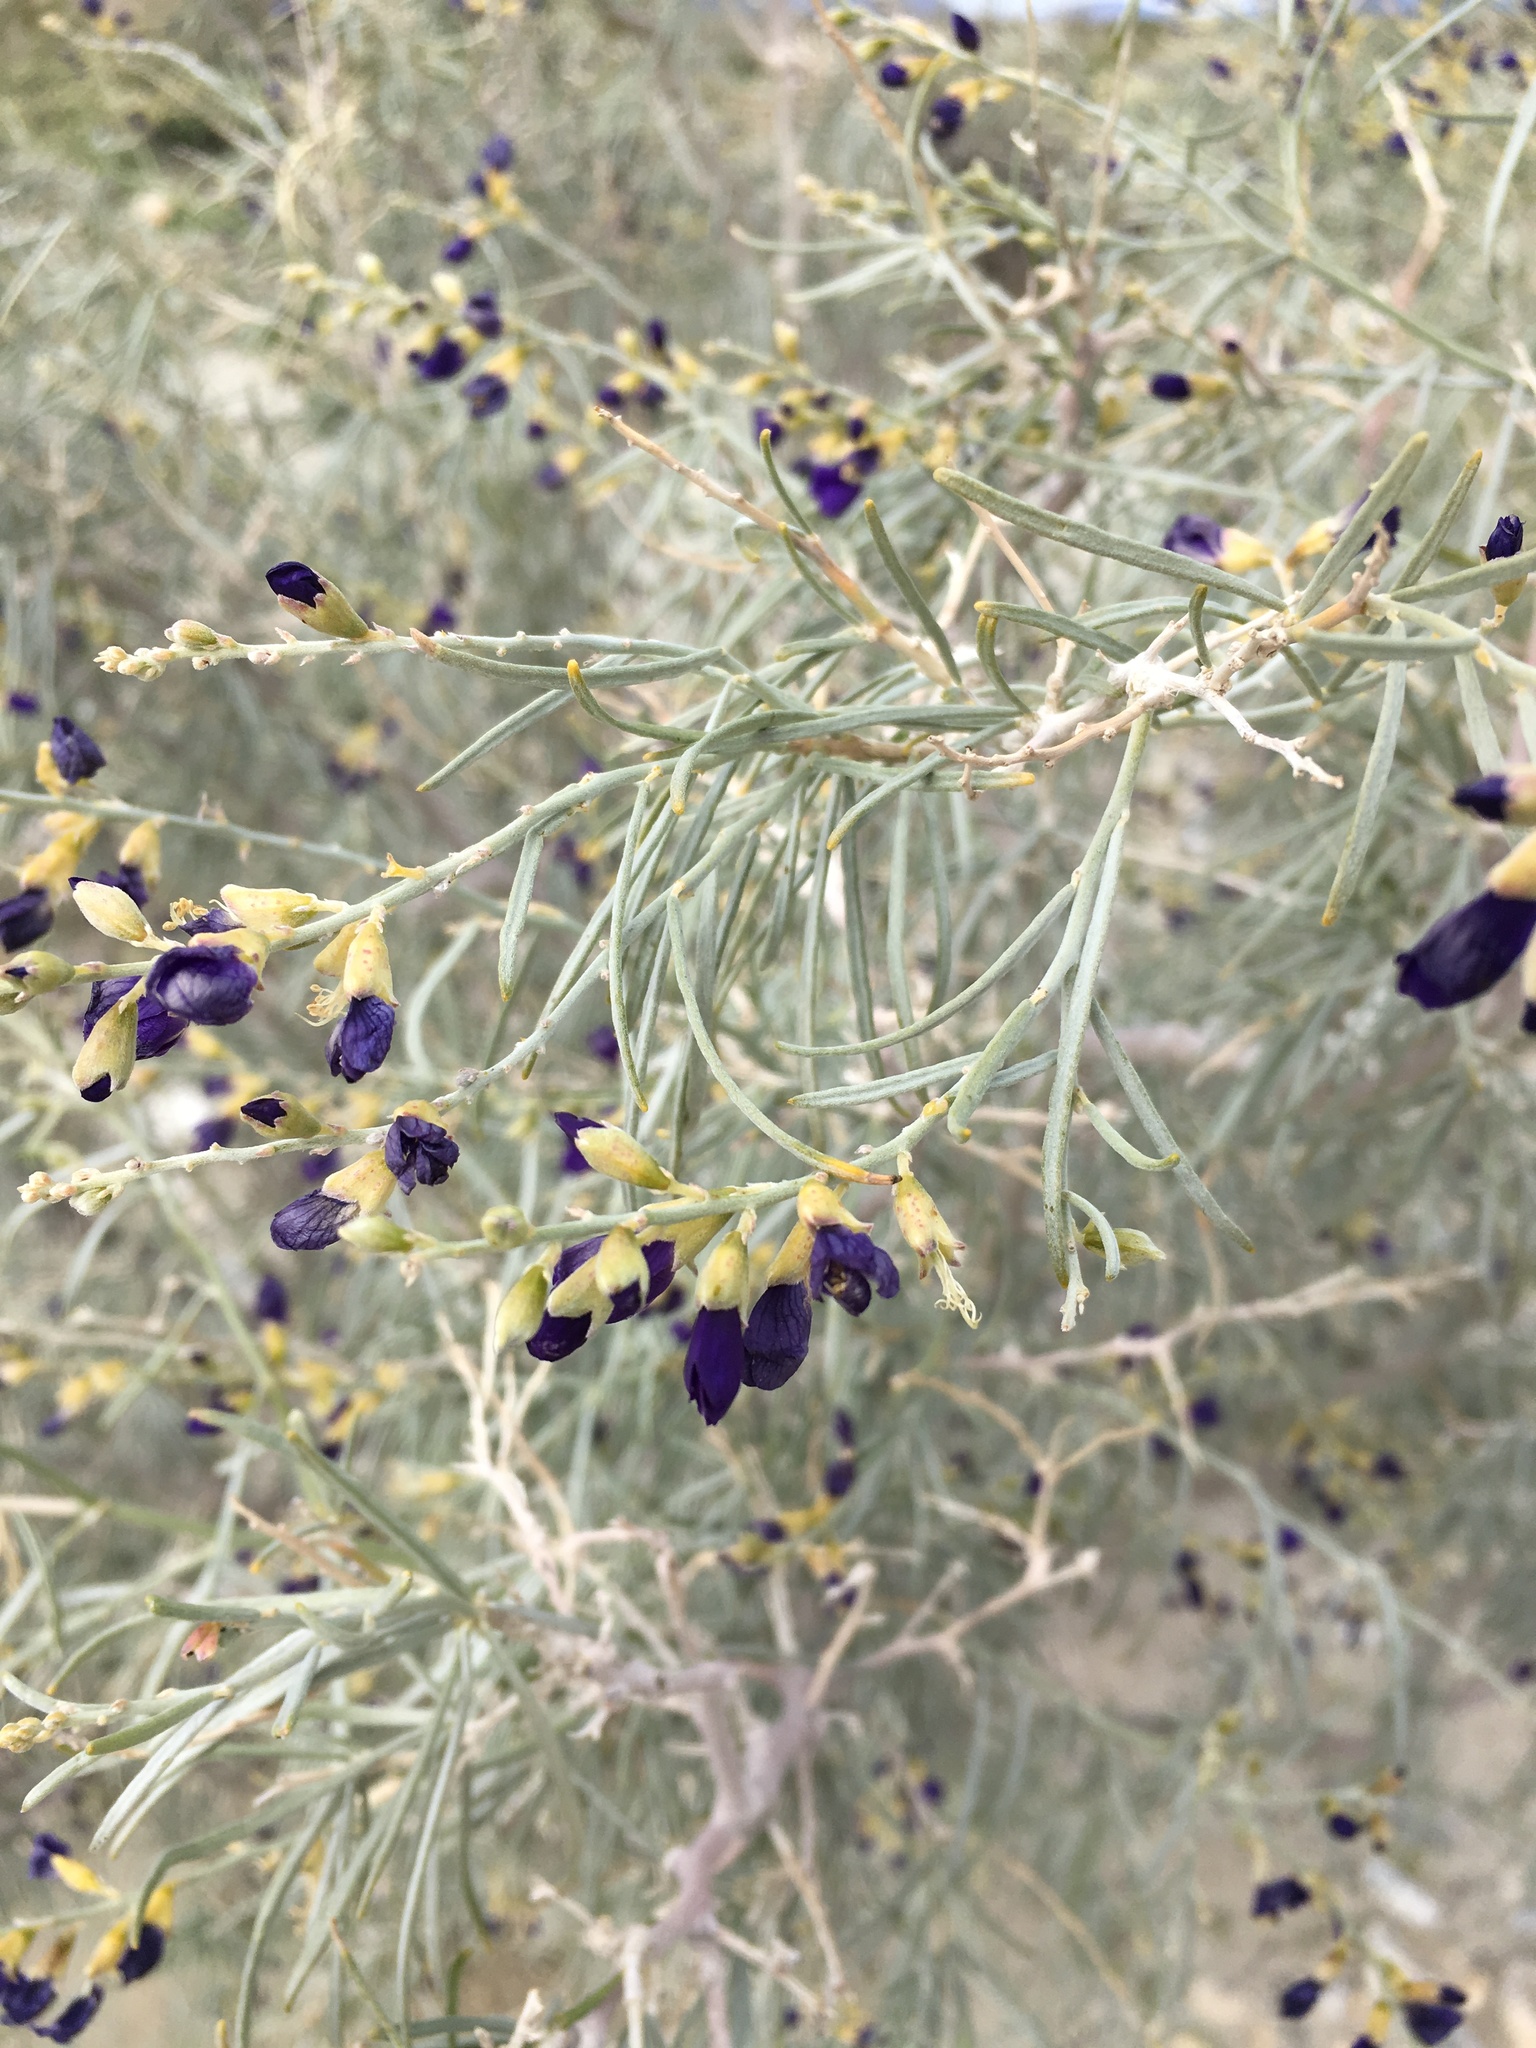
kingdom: Plantae
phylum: Tracheophyta
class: Magnoliopsida
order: Fabales
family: Fabaceae
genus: Psorothamnus
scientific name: Psorothamnus schottii
